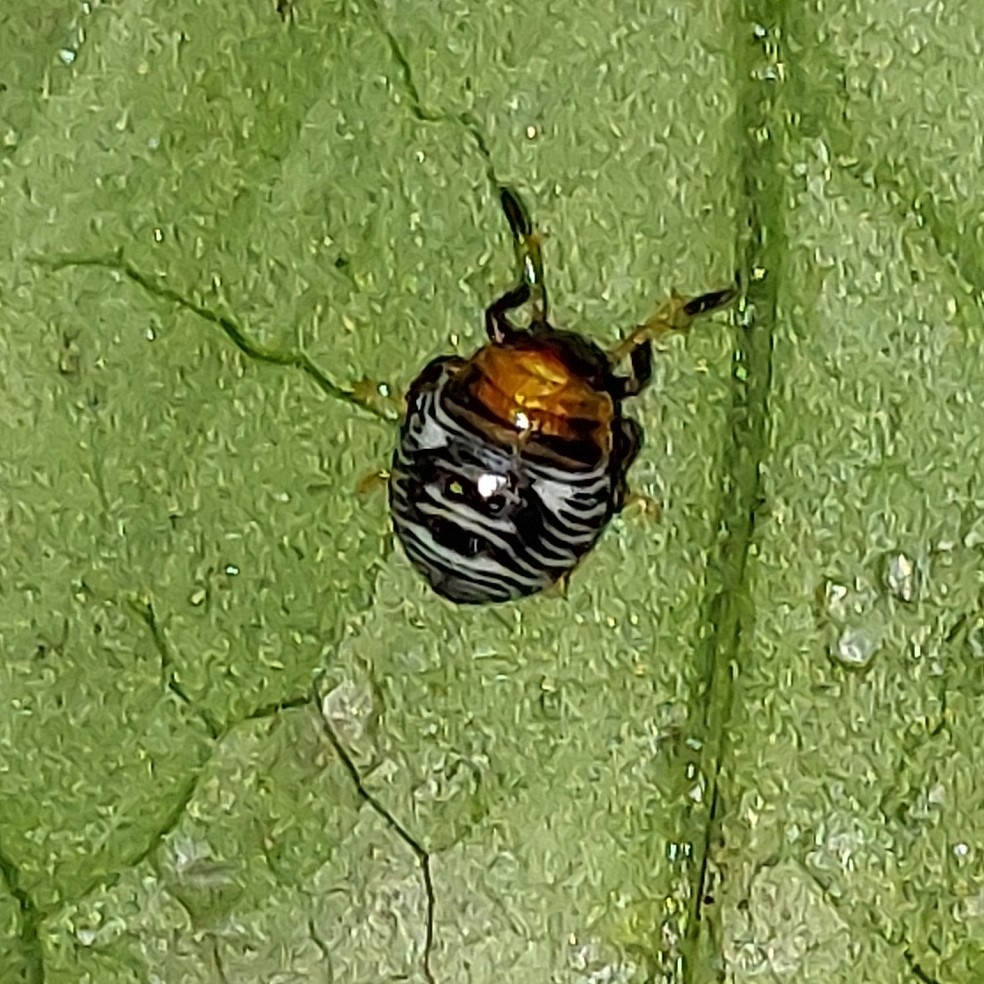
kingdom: Animalia
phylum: Arthropoda
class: Insecta
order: Hemiptera
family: Pentatomidae
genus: Chinavia
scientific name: Chinavia hilaris
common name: Green stink bug
